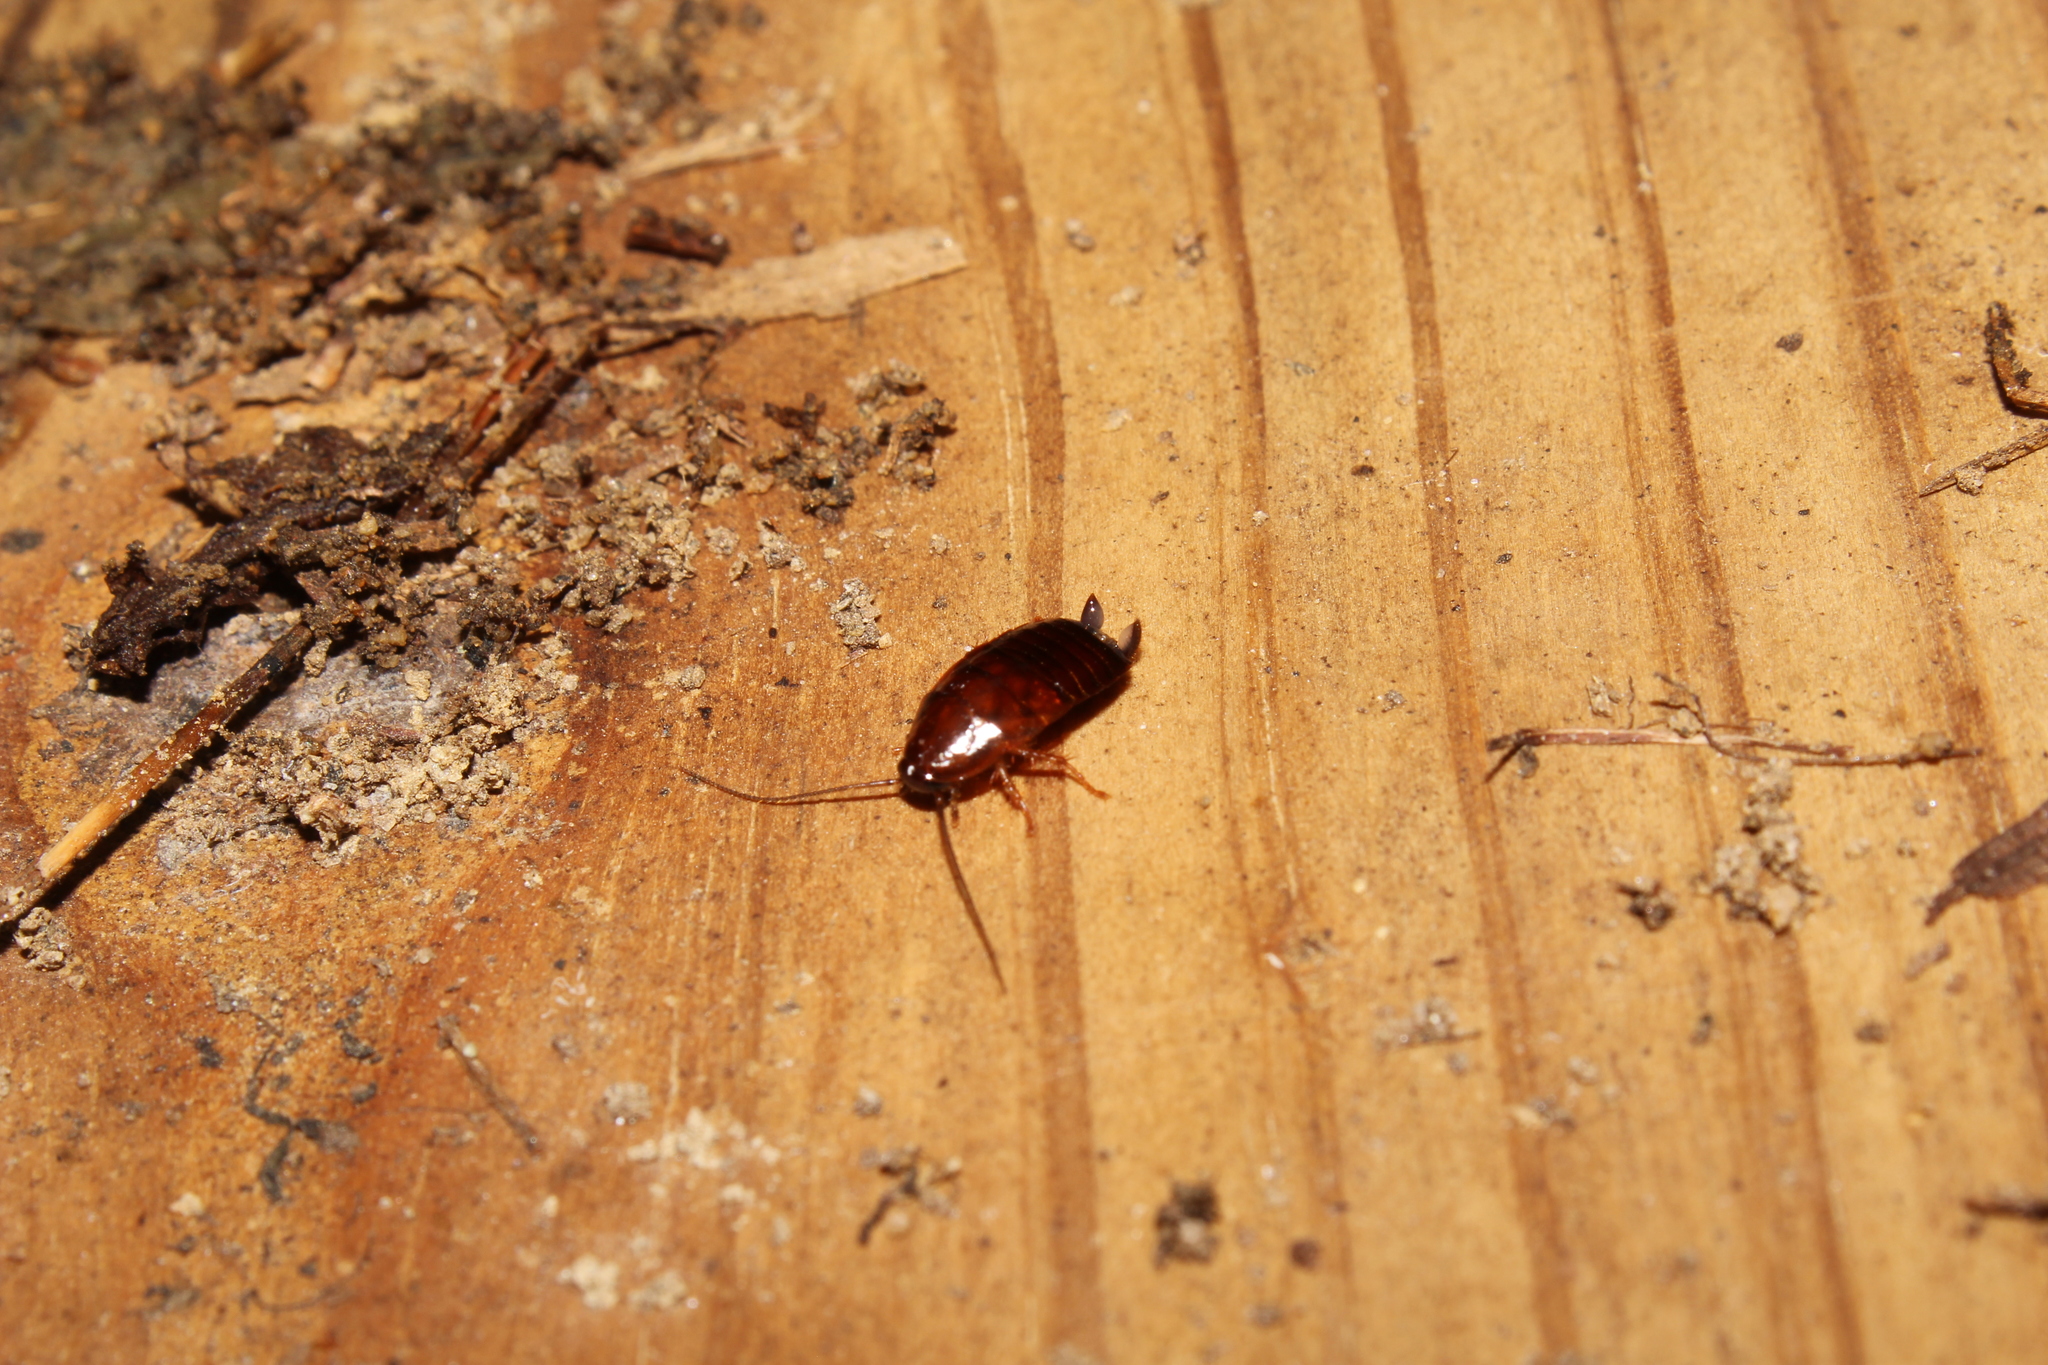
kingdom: Animalia
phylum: Arthropoda
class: Insecta
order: Blattodea
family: Ectobiidae
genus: Parcoblatta
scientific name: Parcoblatta
